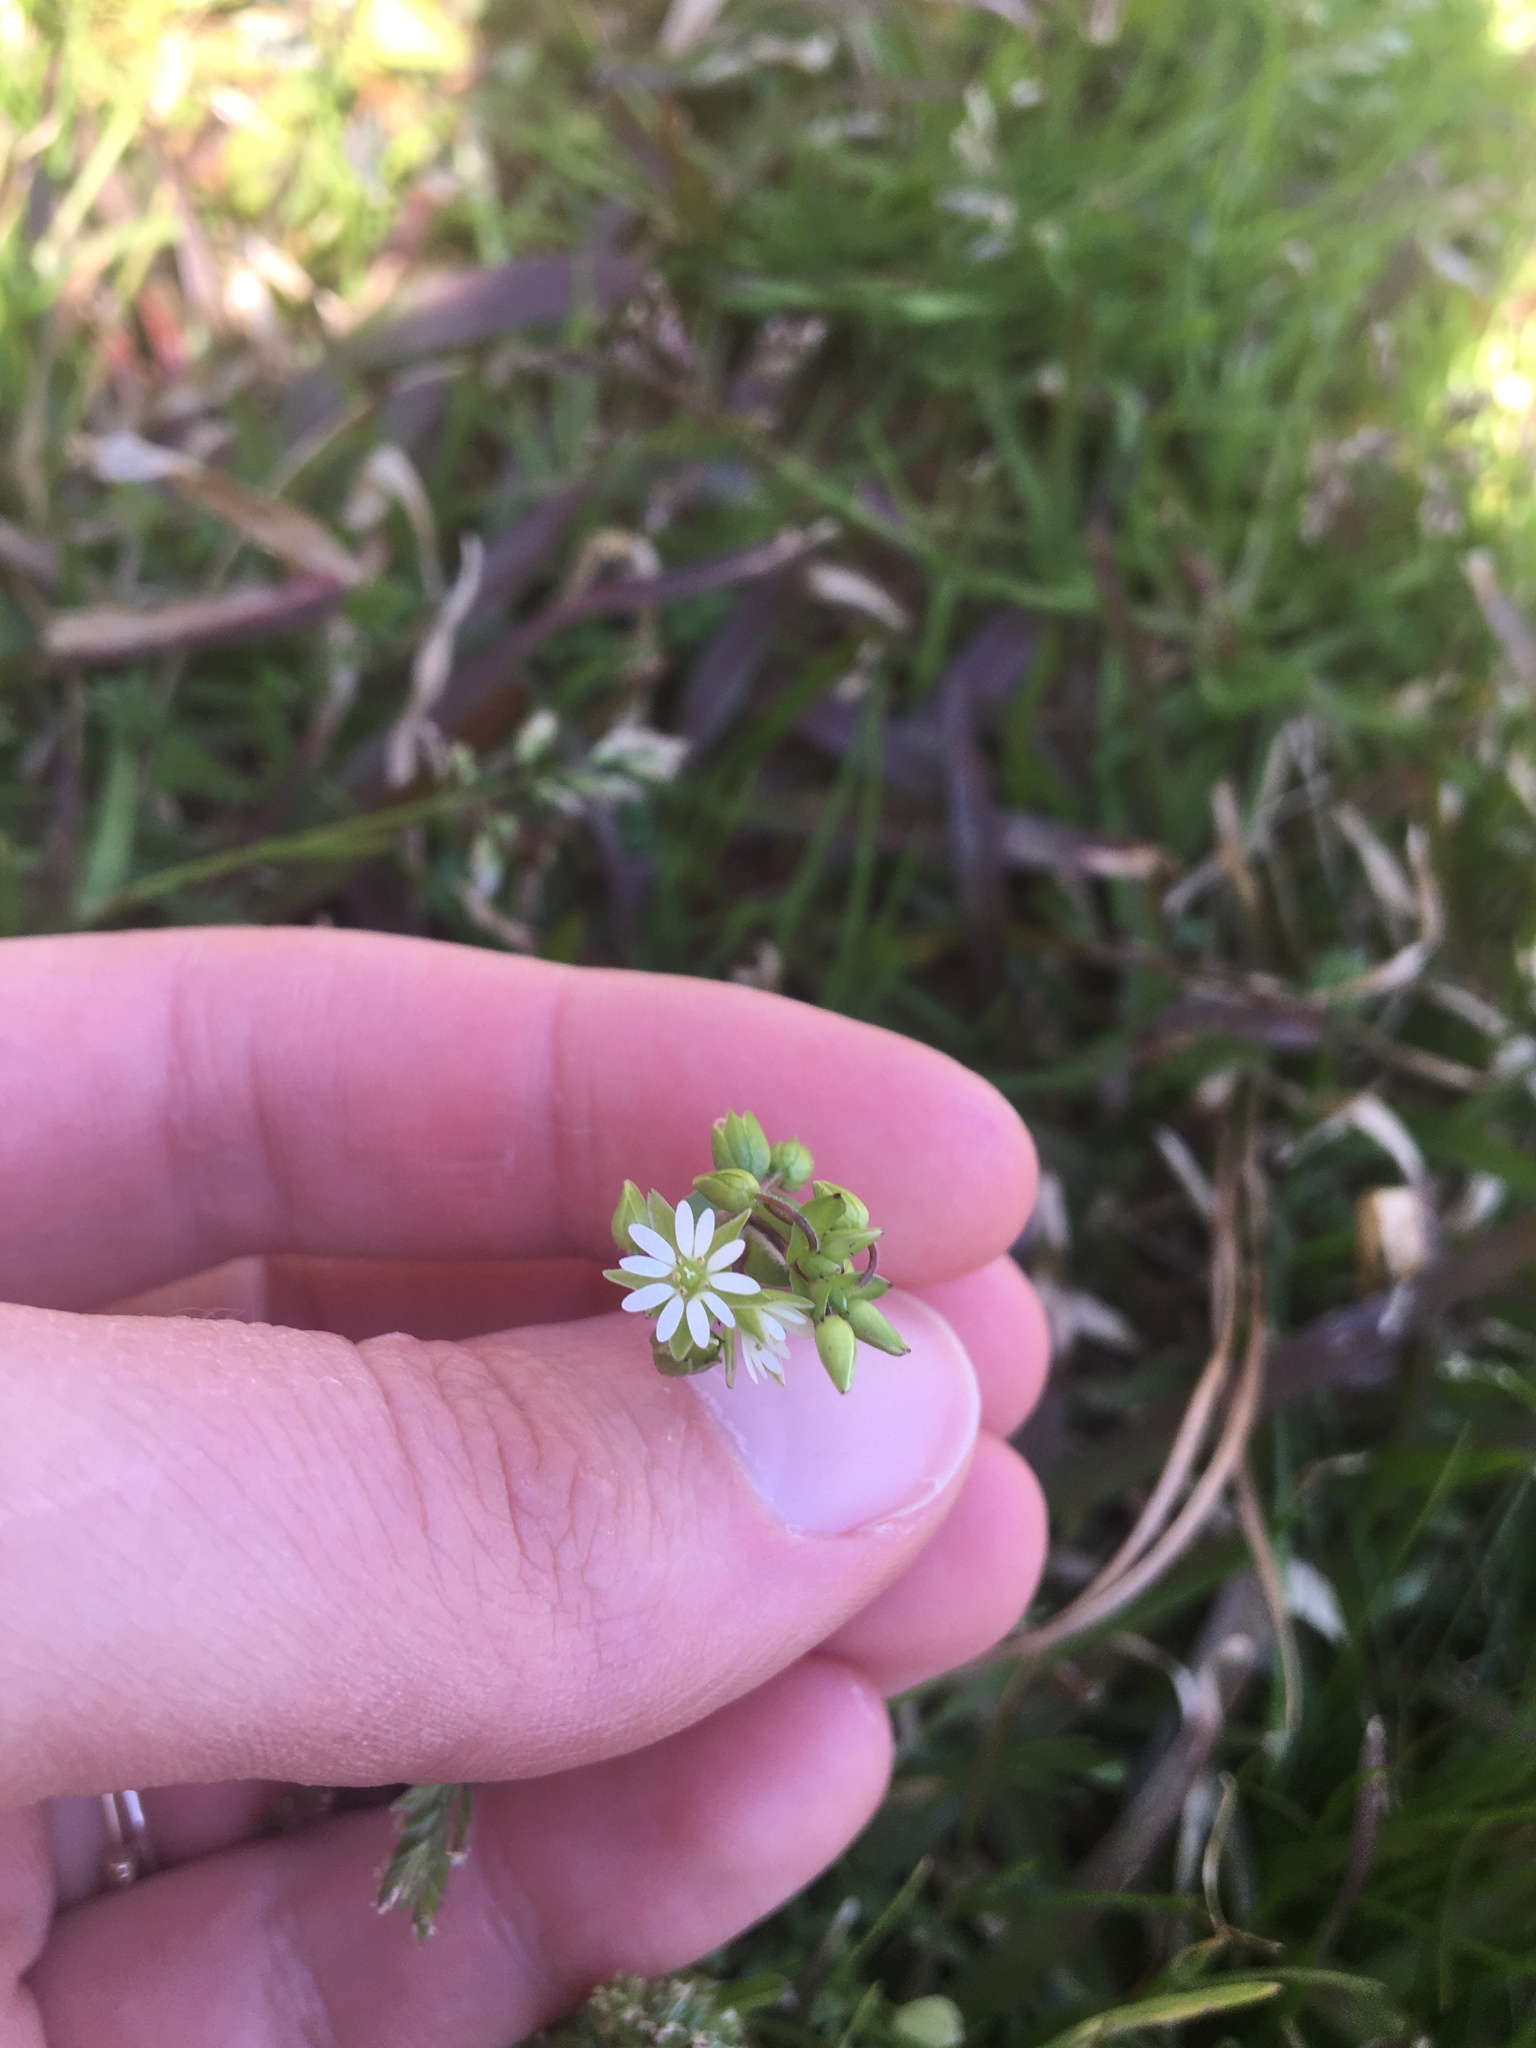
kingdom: Plantae
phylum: Tracheophyta
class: Magnoliopsida
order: Caryophyllales
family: Caryophyllaceae
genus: Stellaria
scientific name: Stellaria media
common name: Common chickweed
